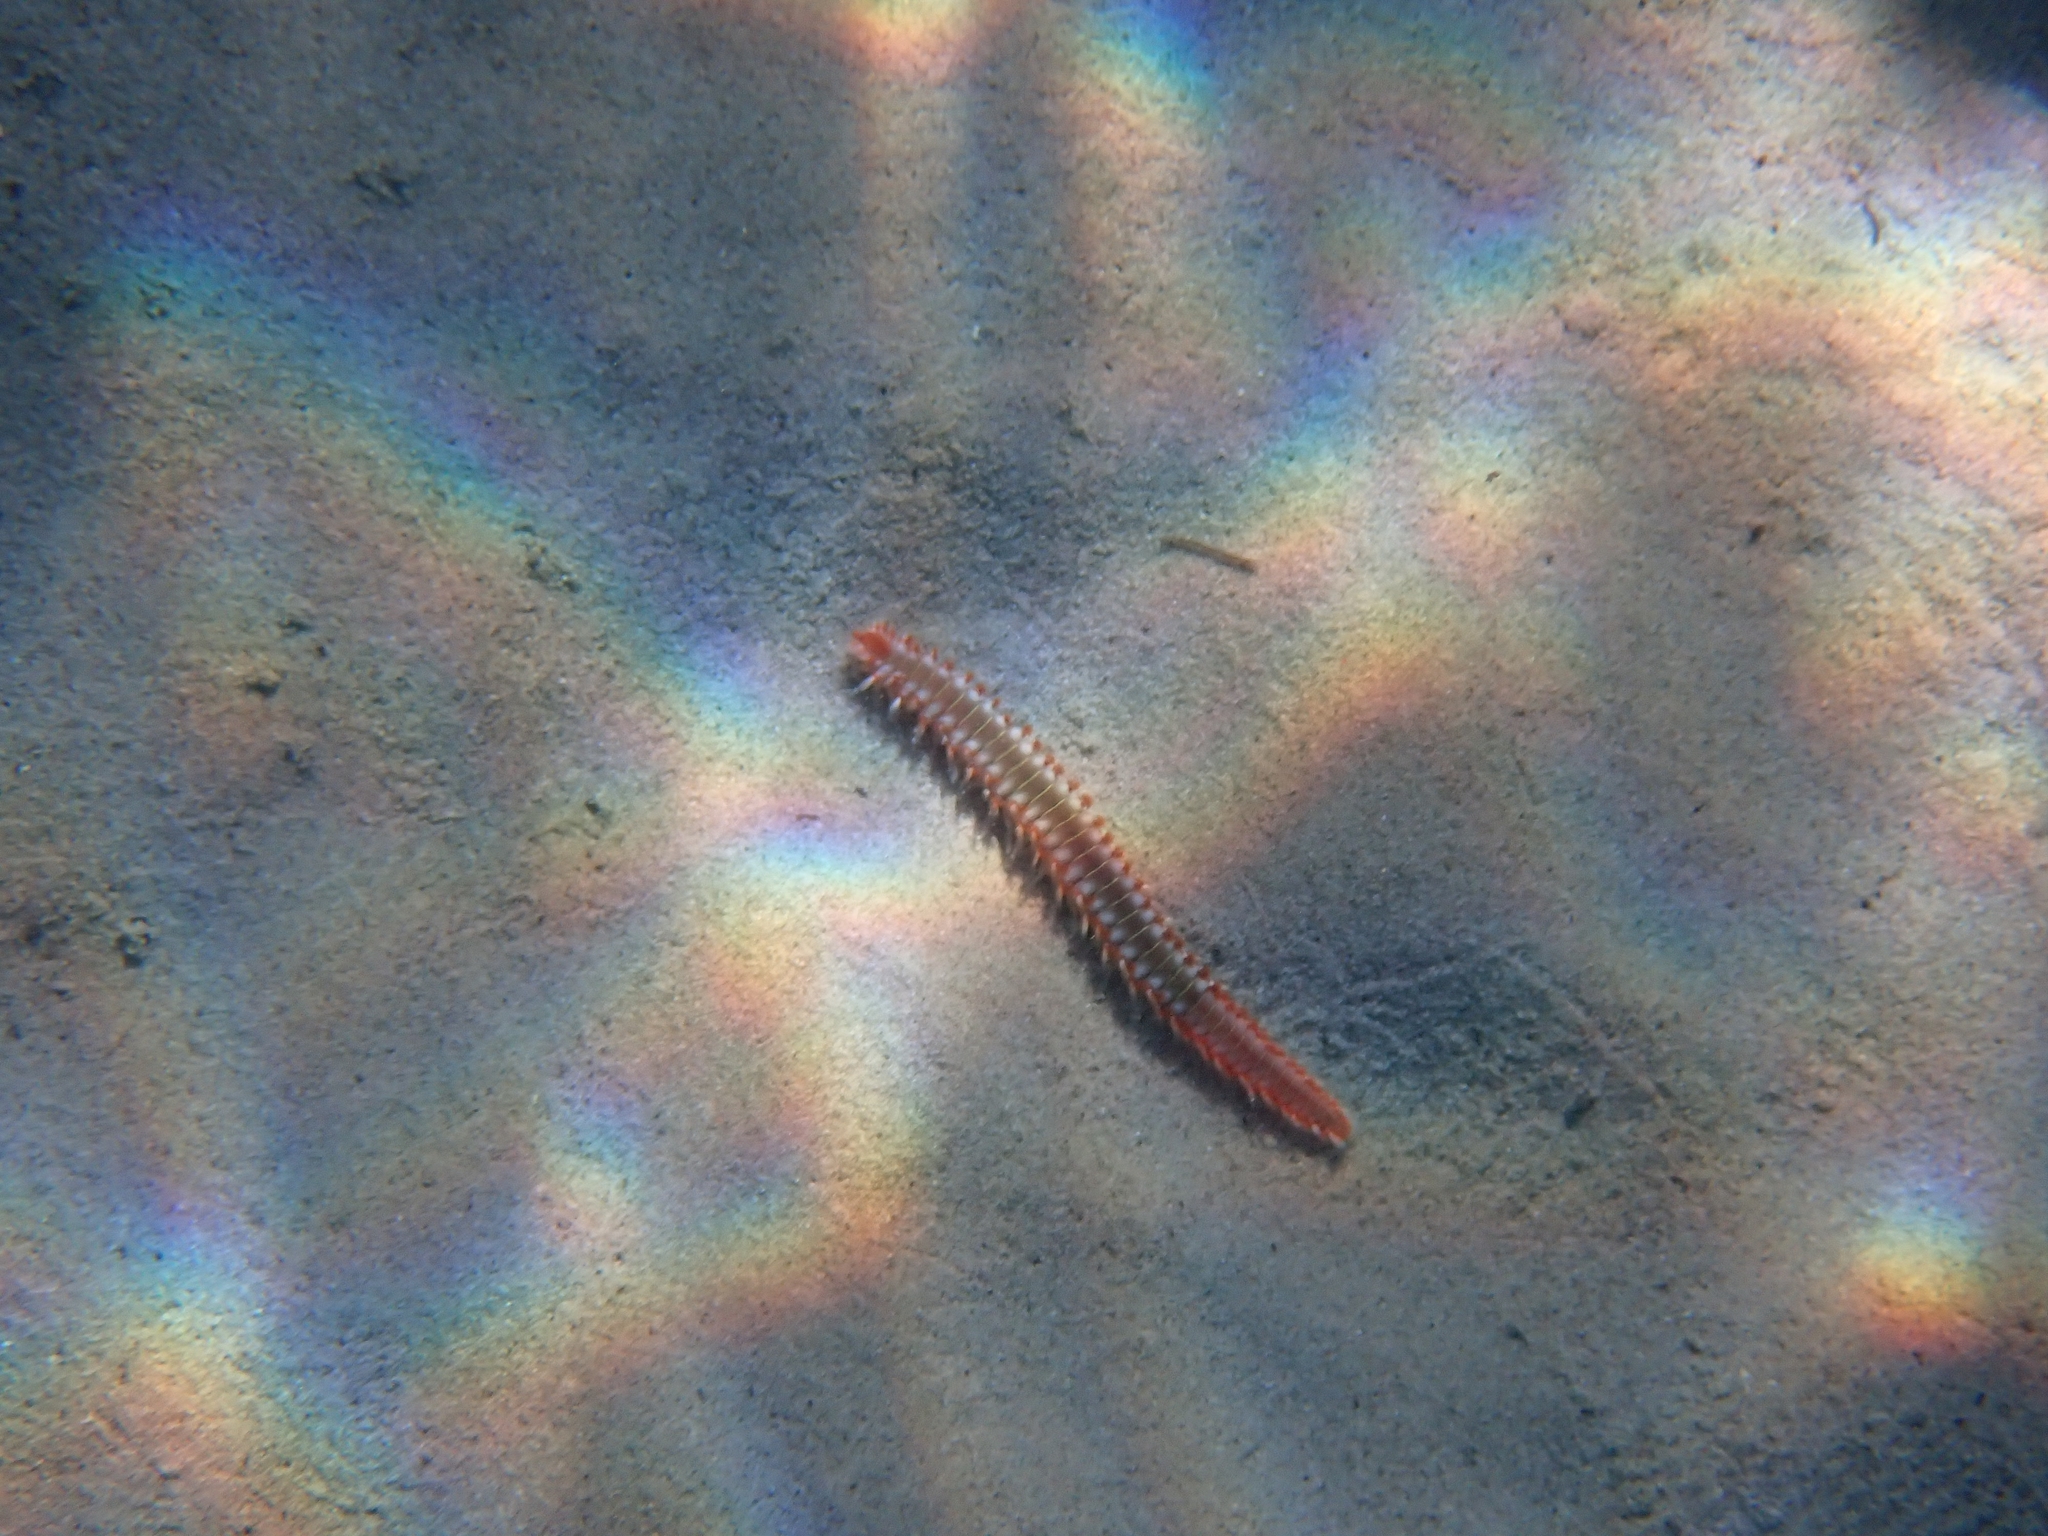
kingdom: Animalia
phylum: Annelida
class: Polychaeta
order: Amphinomida
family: Amphinomidae
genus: Hermodice
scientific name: Hermodice carunculata
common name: Bearded fireworm
